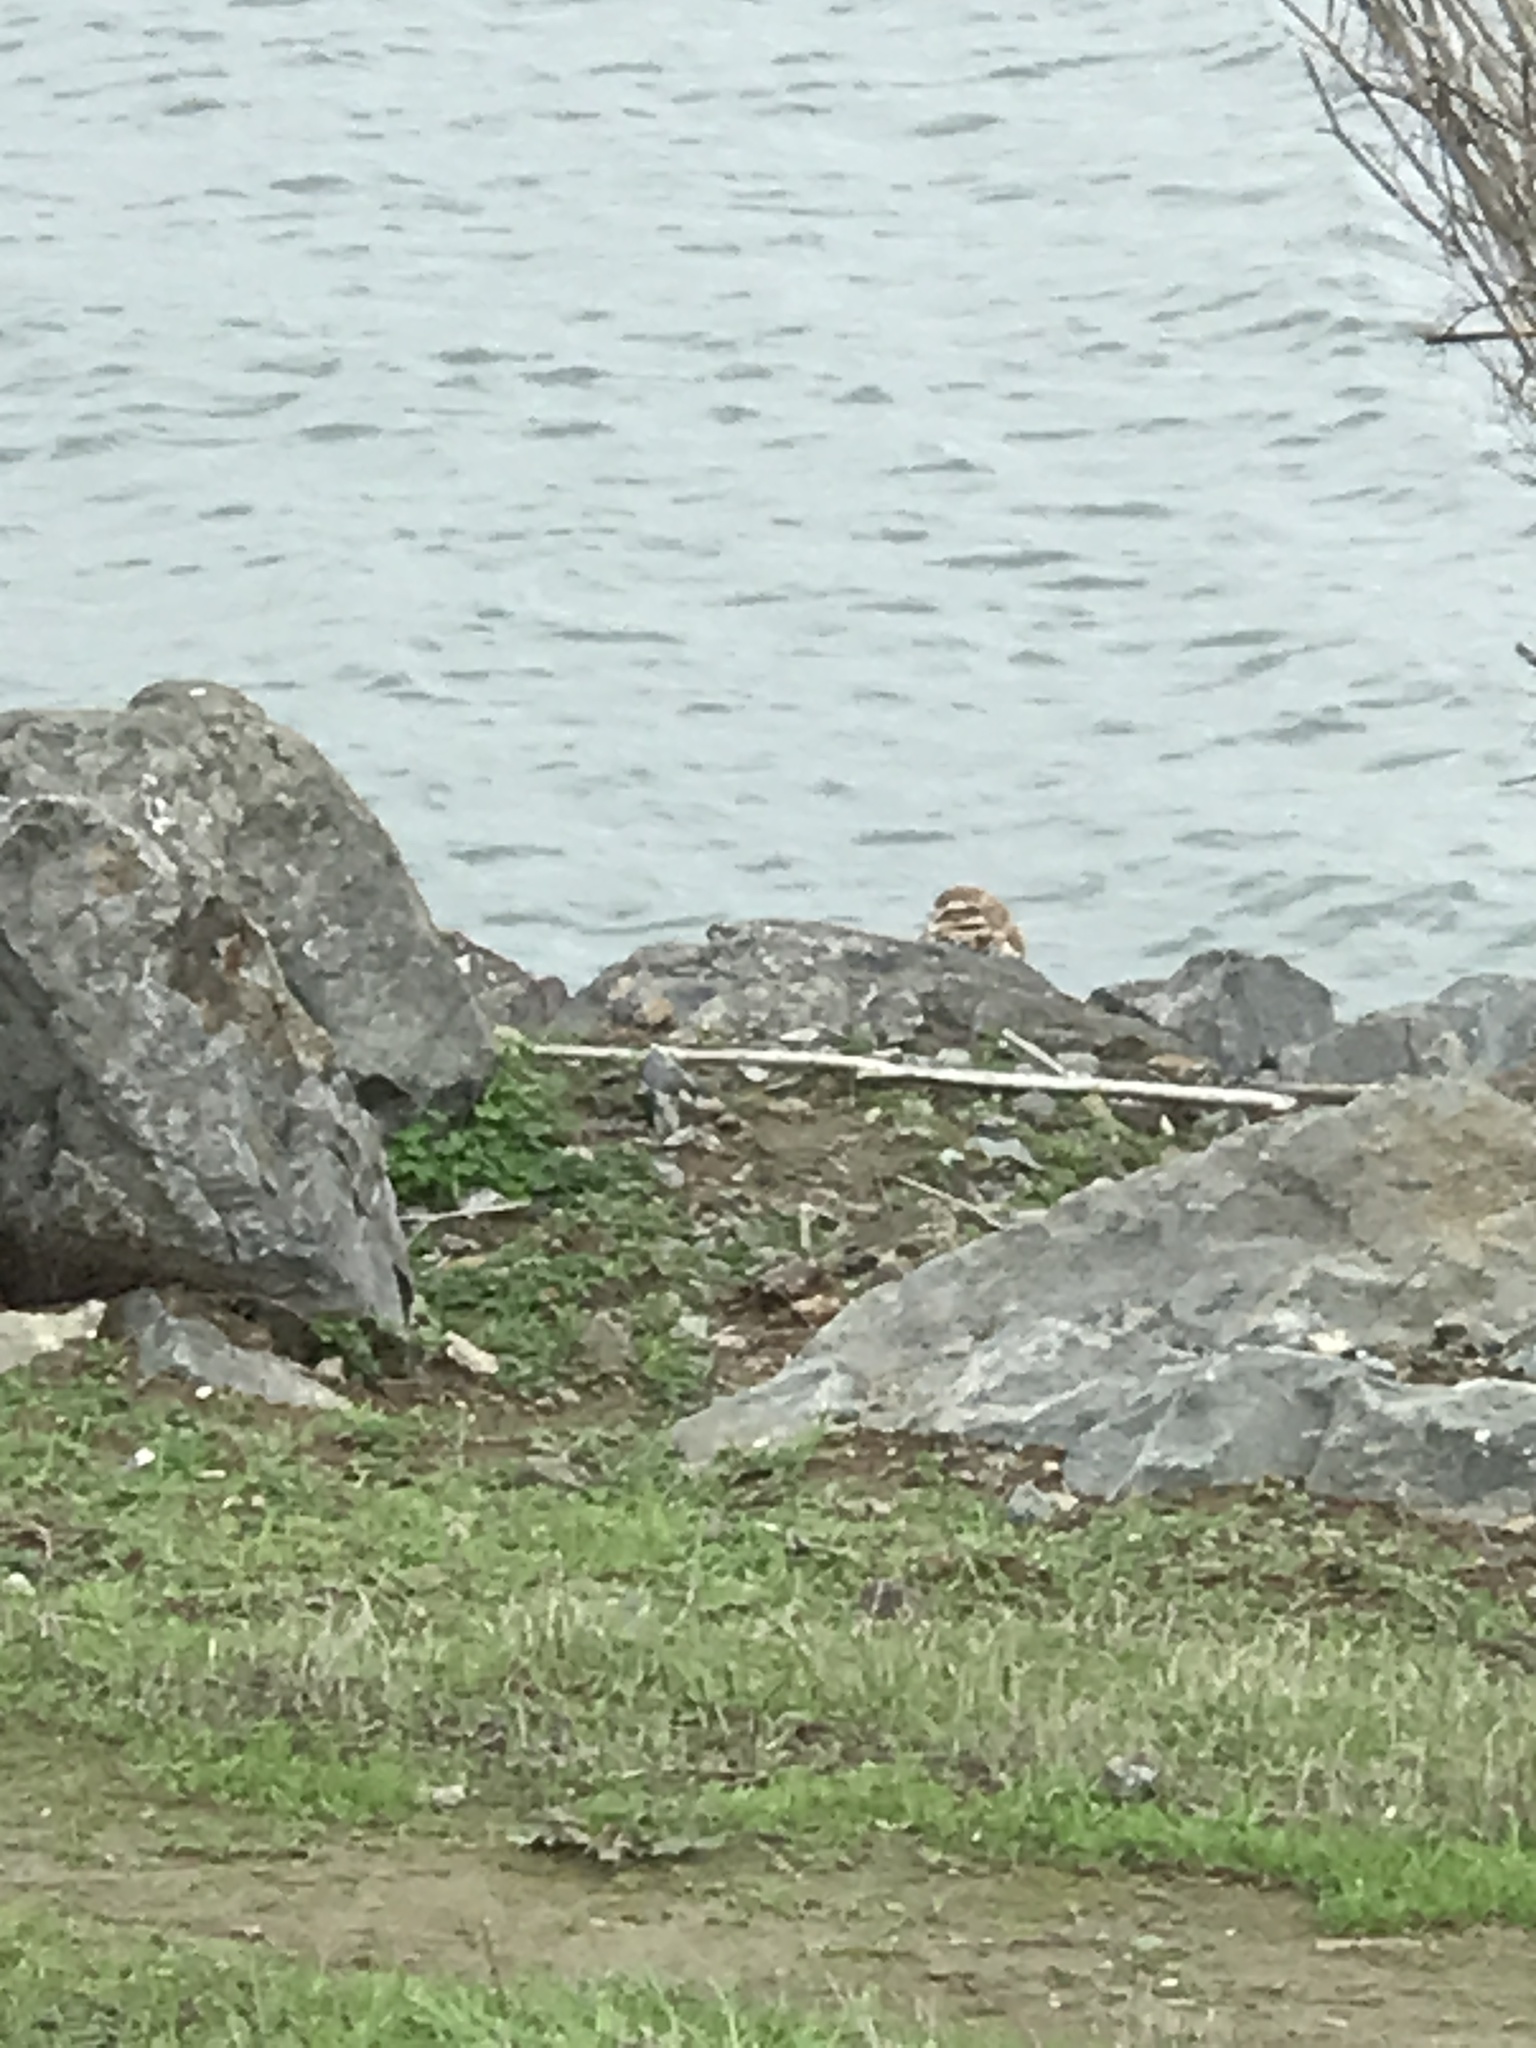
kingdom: Animalia
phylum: Chordata
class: Aves
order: Strigiformes
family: Strigidae
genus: Athene
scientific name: Athene cunicularia
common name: Burrowing owl
